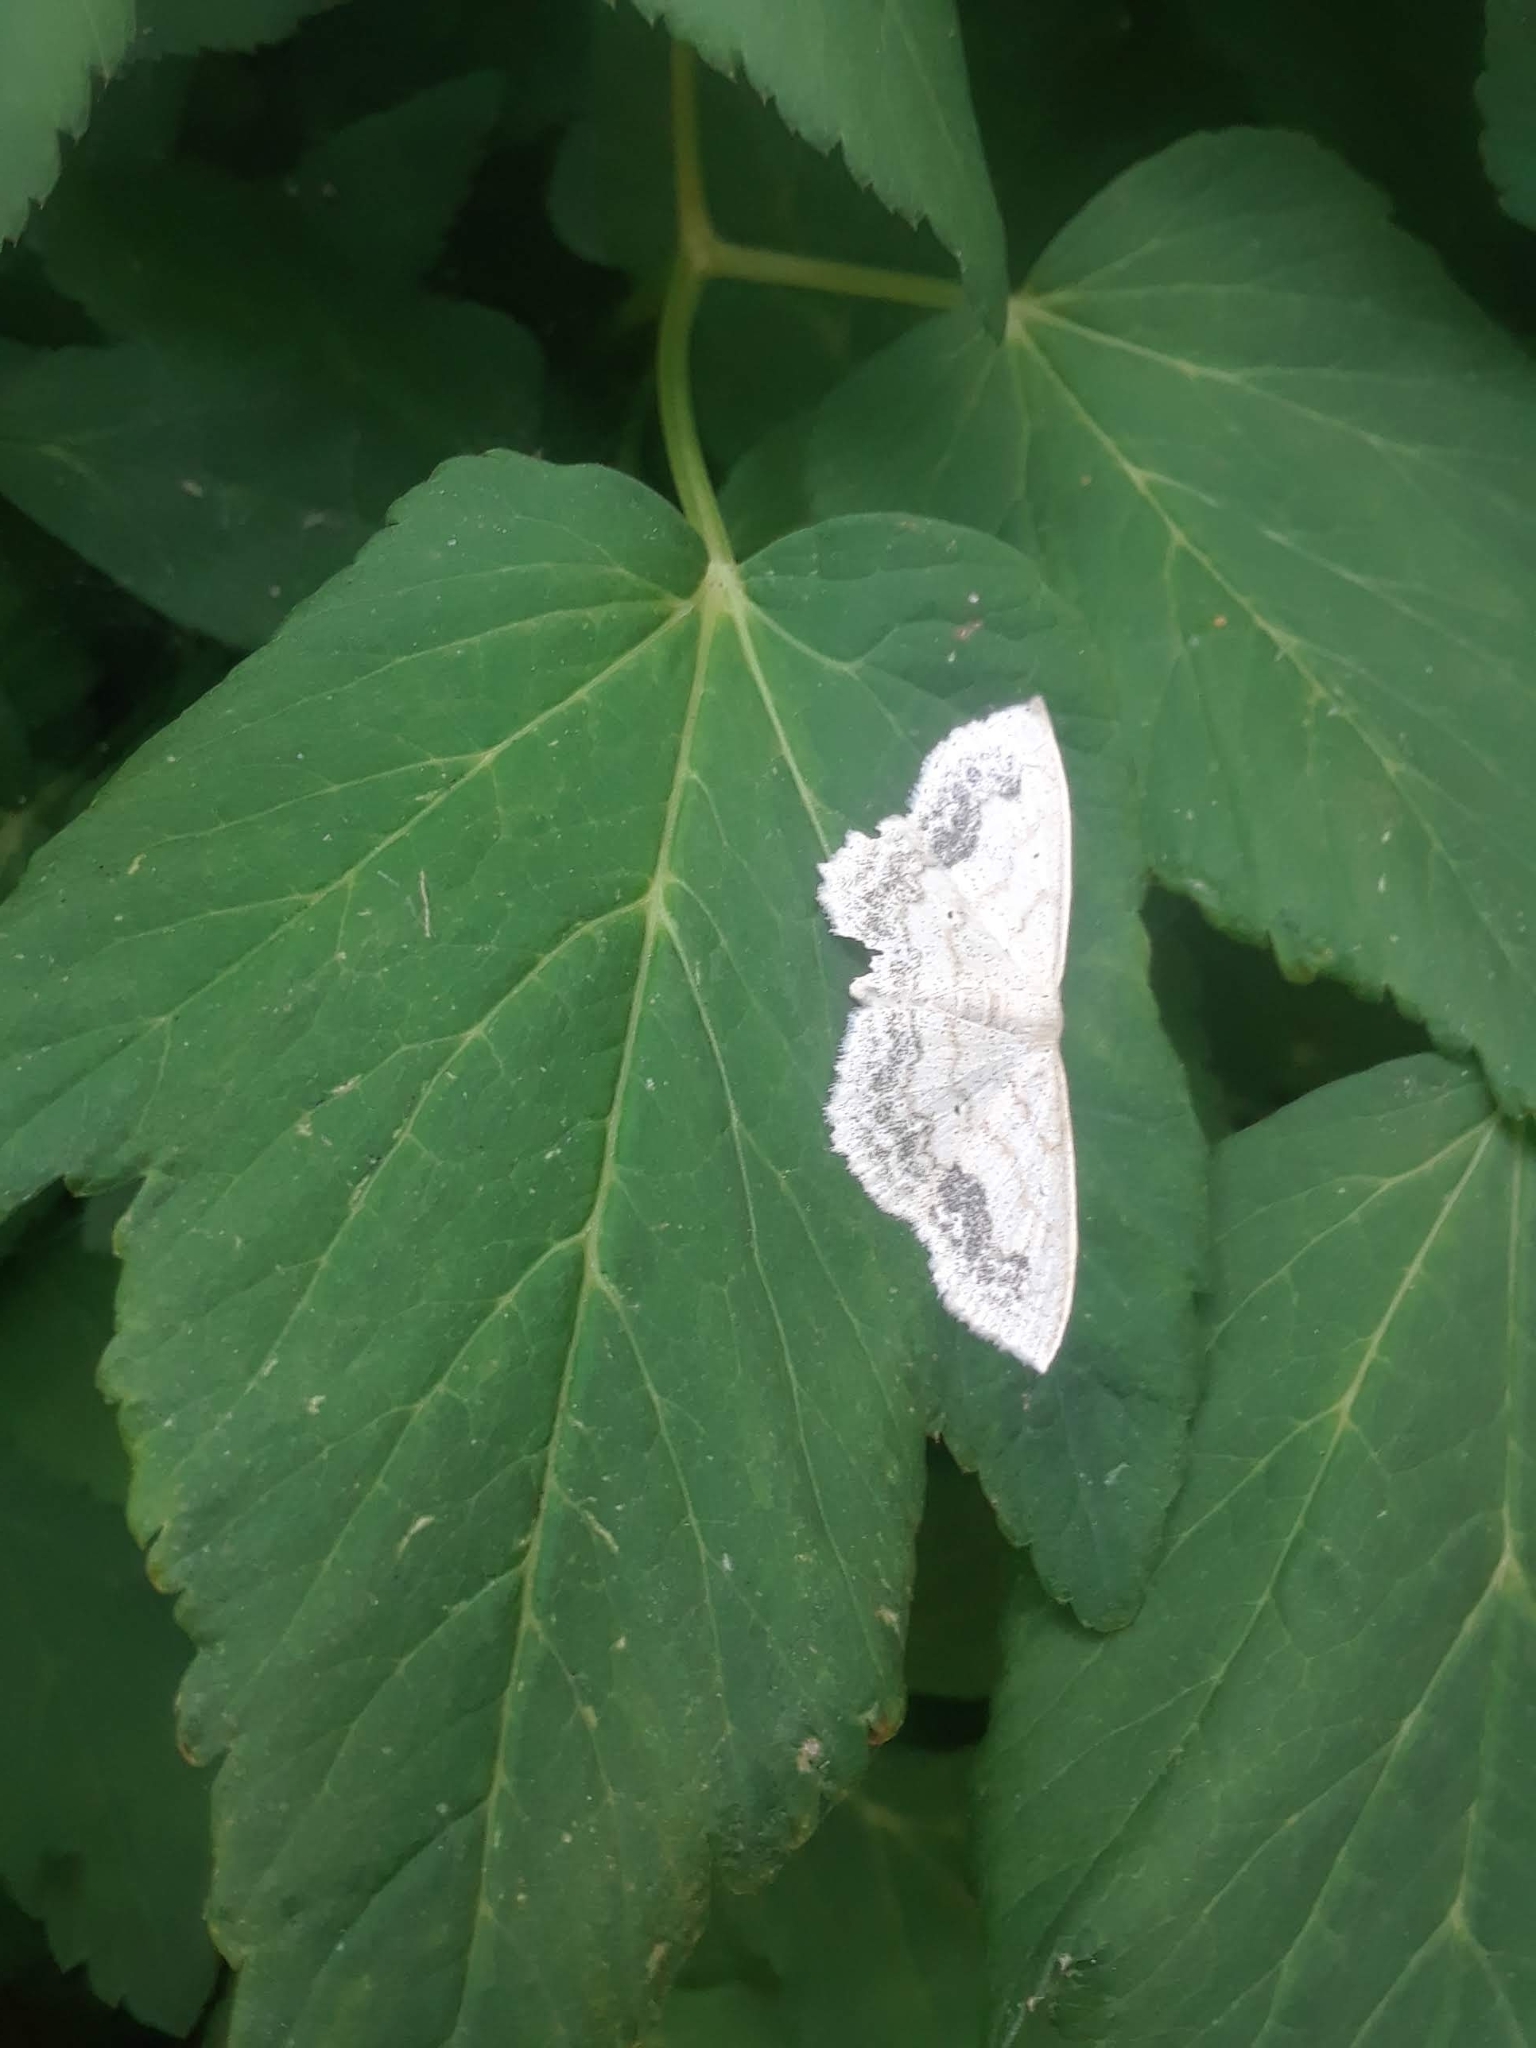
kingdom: Animalia
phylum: Arthropoda
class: Insecta
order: Lepidoptera
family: Geometridae
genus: Scopula
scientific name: Scopula limboundata
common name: Large lace border
